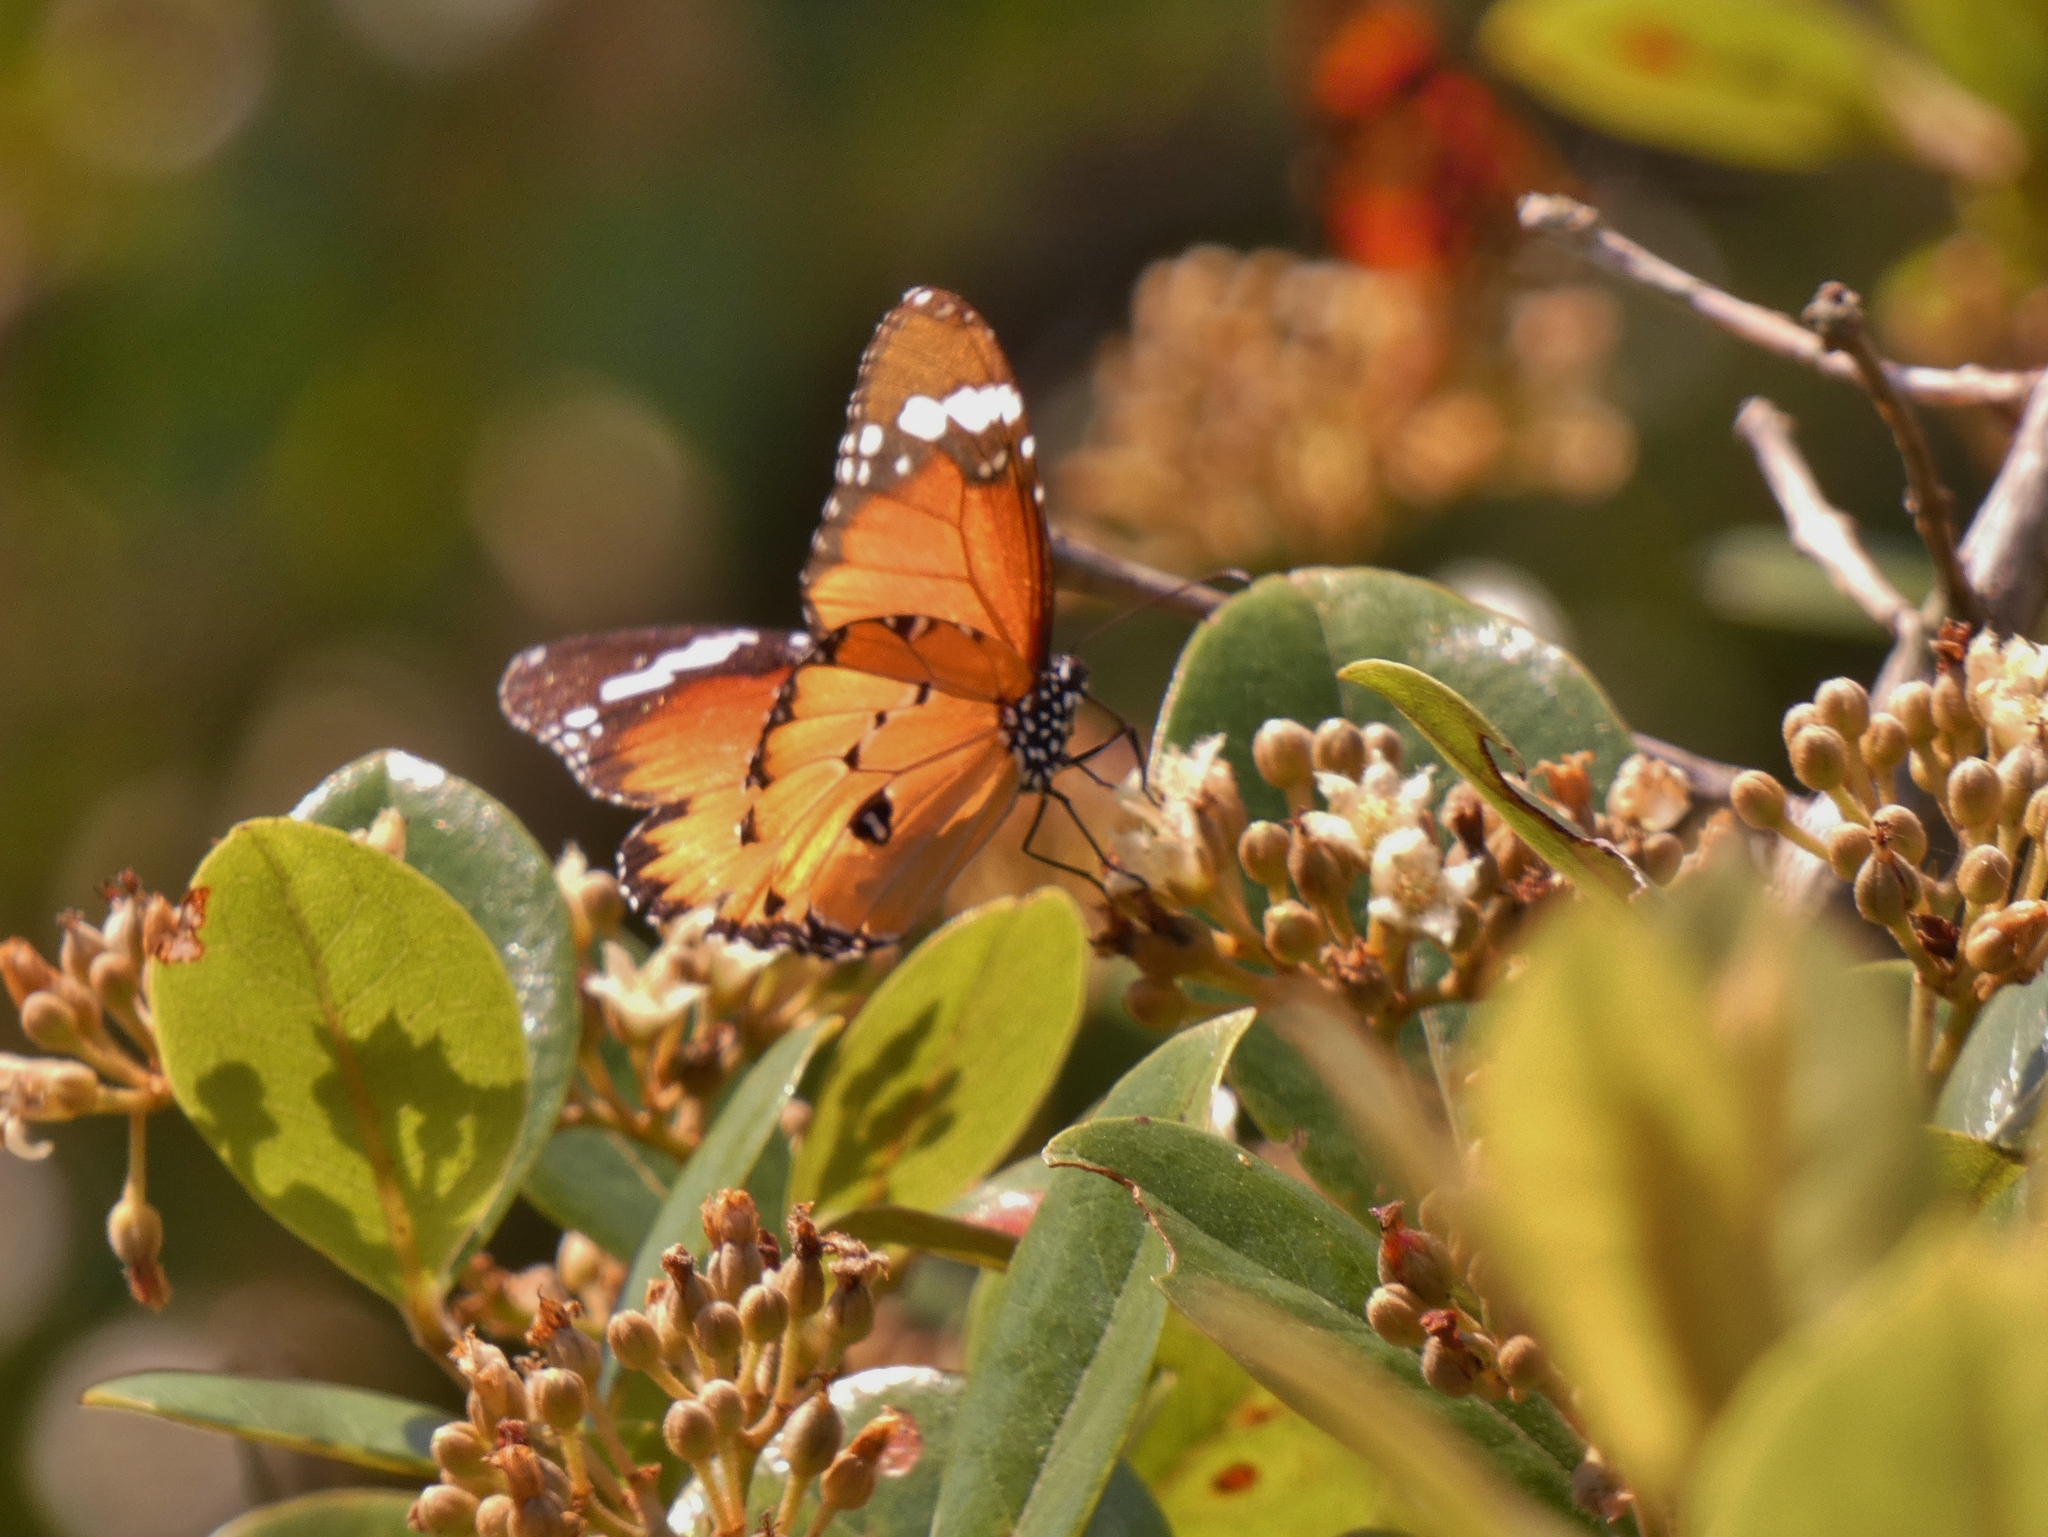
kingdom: Animalia
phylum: Arthropoda
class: Insecta
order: Lepidoptera
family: Nymphalidae
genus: Danaus
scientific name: Danaus chrysippus
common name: Plain tiger
